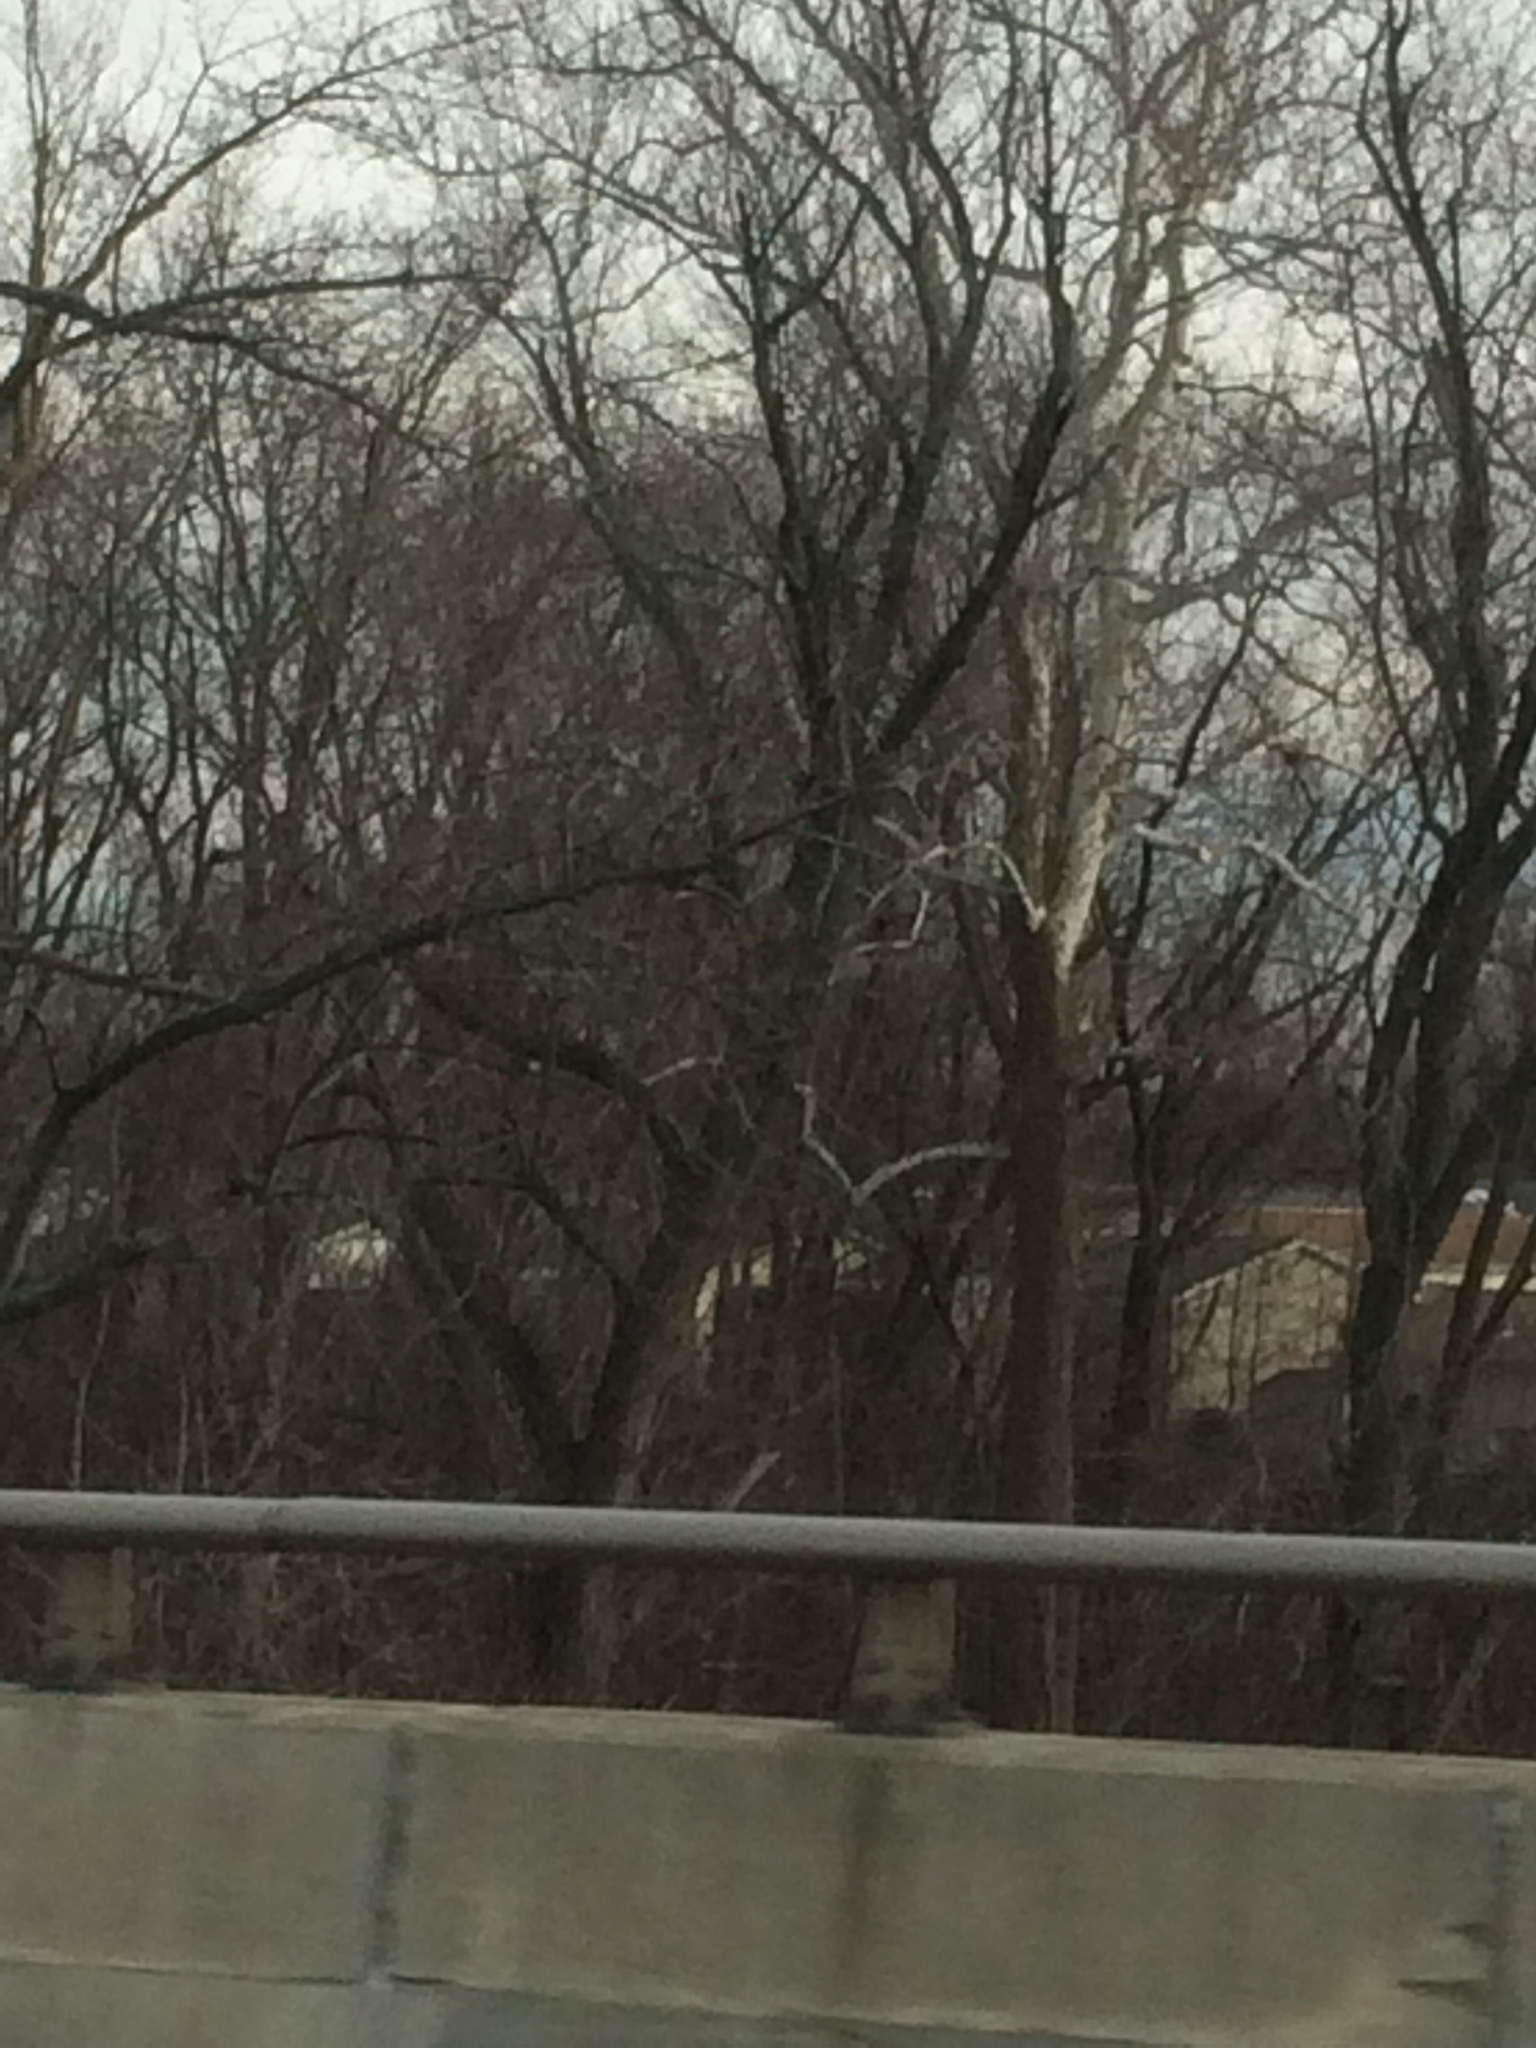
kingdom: Plantae
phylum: Tracheophyta
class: Magnoliopsida
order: Proteales
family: Platanaceae
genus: Platanus
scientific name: Platanus occidentalis
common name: American sycamore
